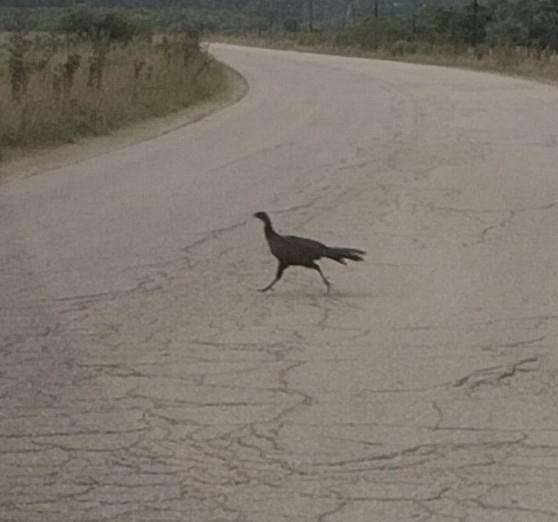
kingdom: Animalia
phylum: Chordata
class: Aves
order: Galliformes
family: Cracidae
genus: Penelope
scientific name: Penelope obscura
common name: Dusky-legged guan
